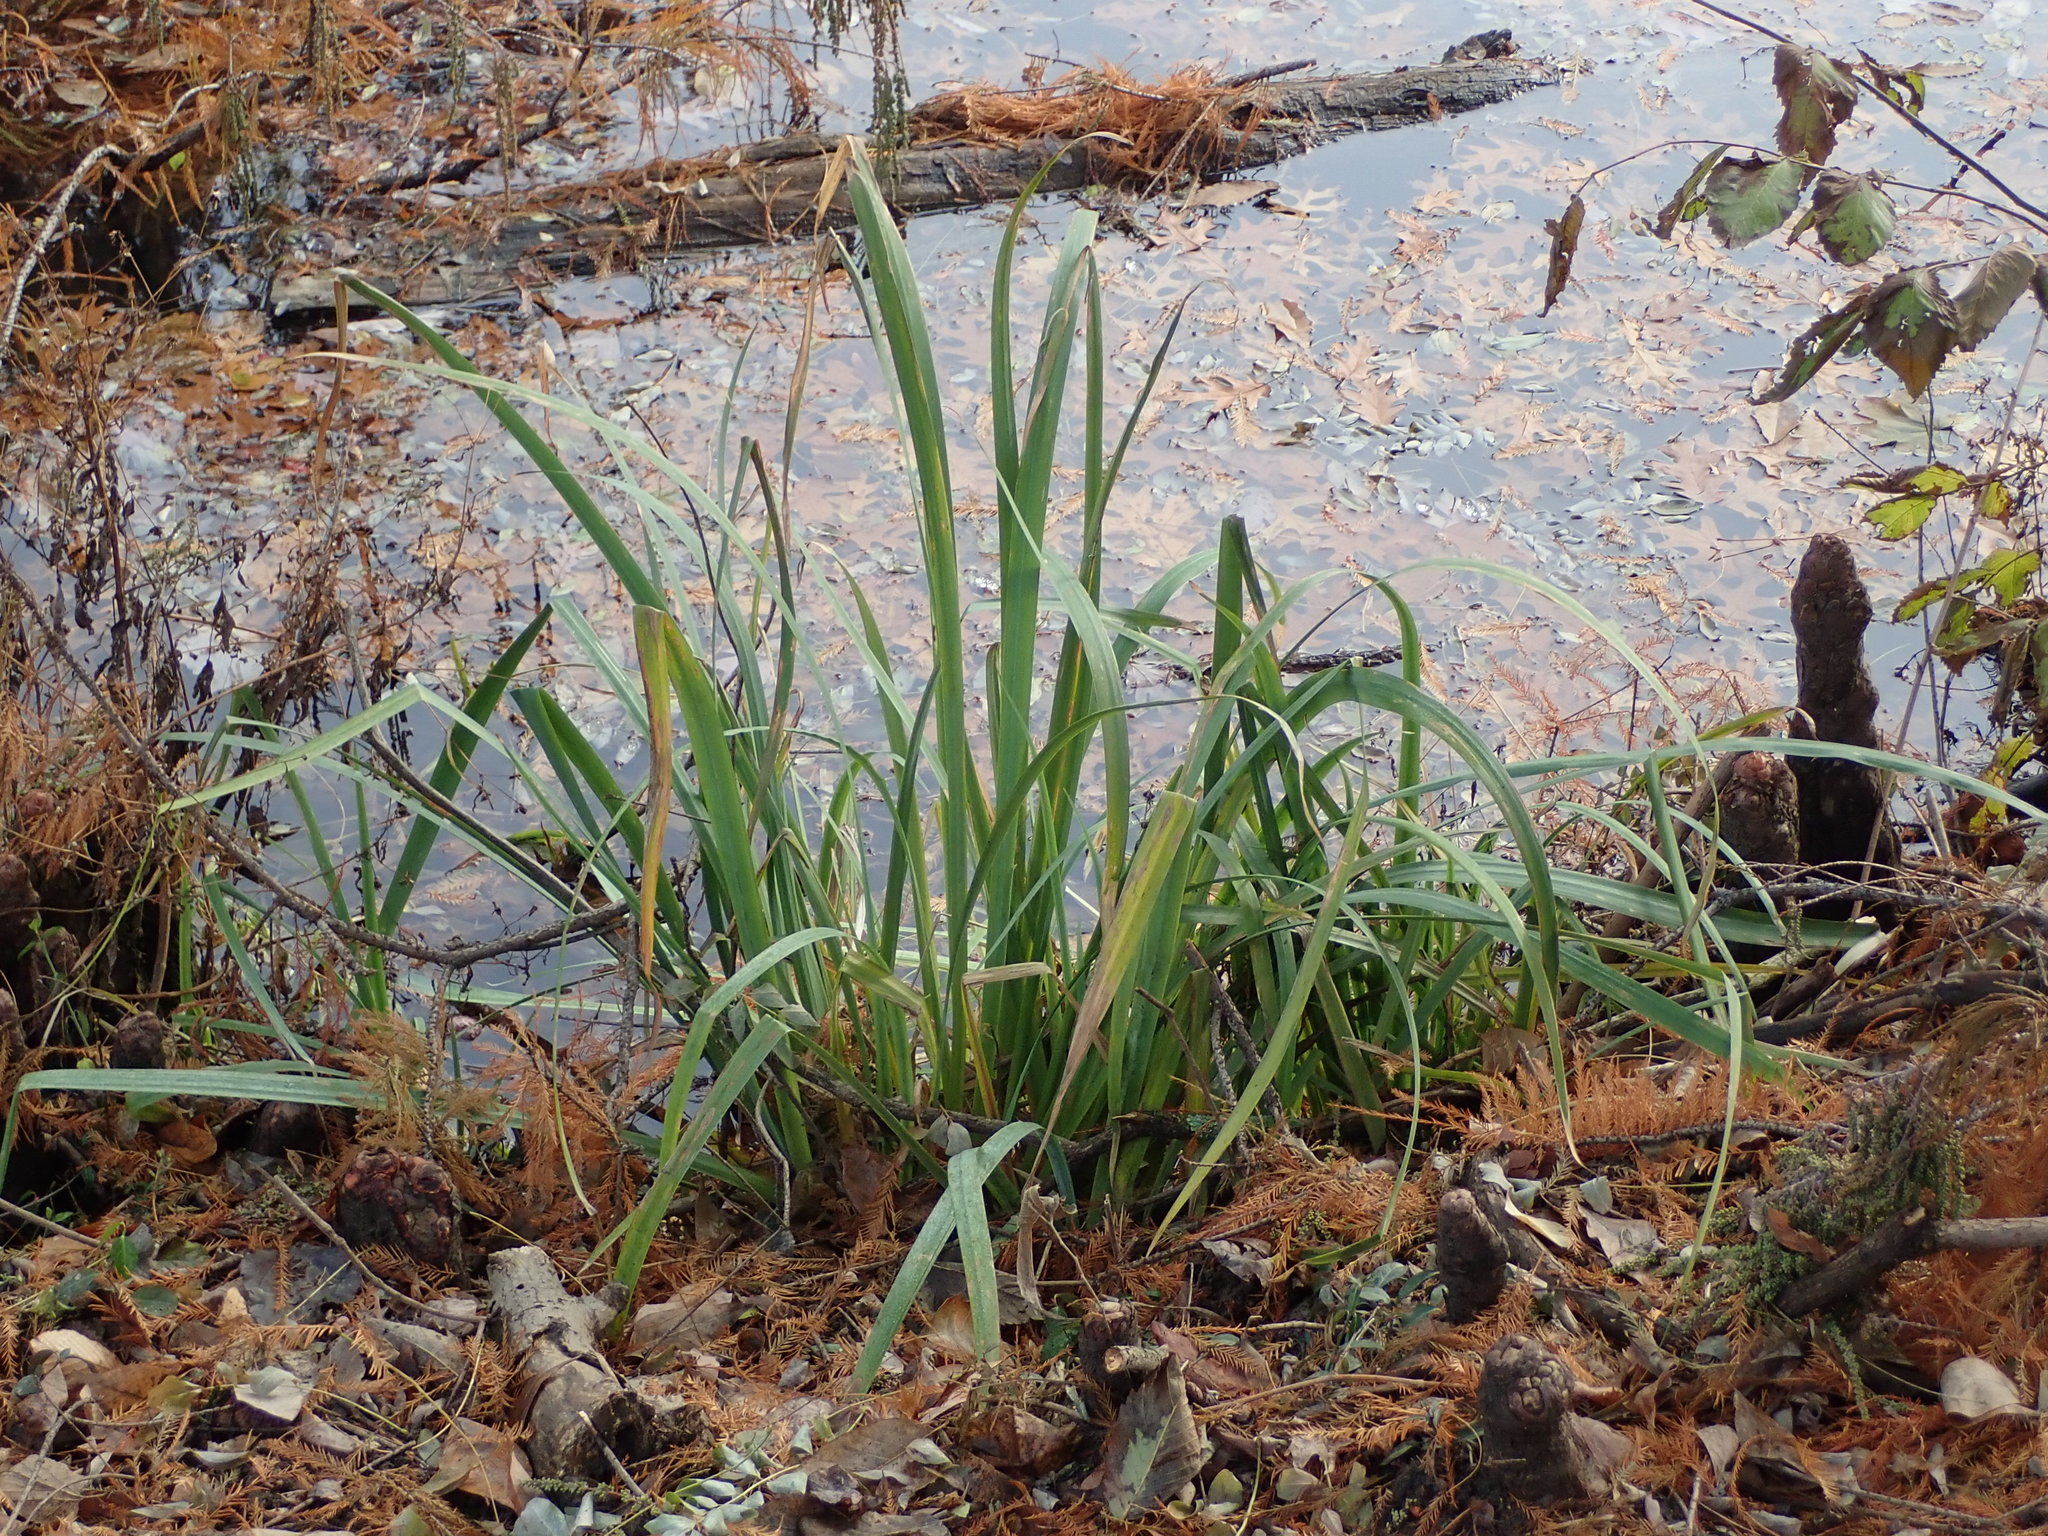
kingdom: Plantae
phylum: Tracheophyta
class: Liliopsida
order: Asparagales
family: Iridaceae
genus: Iris
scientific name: Iris pseudacorus
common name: Yellow flag
